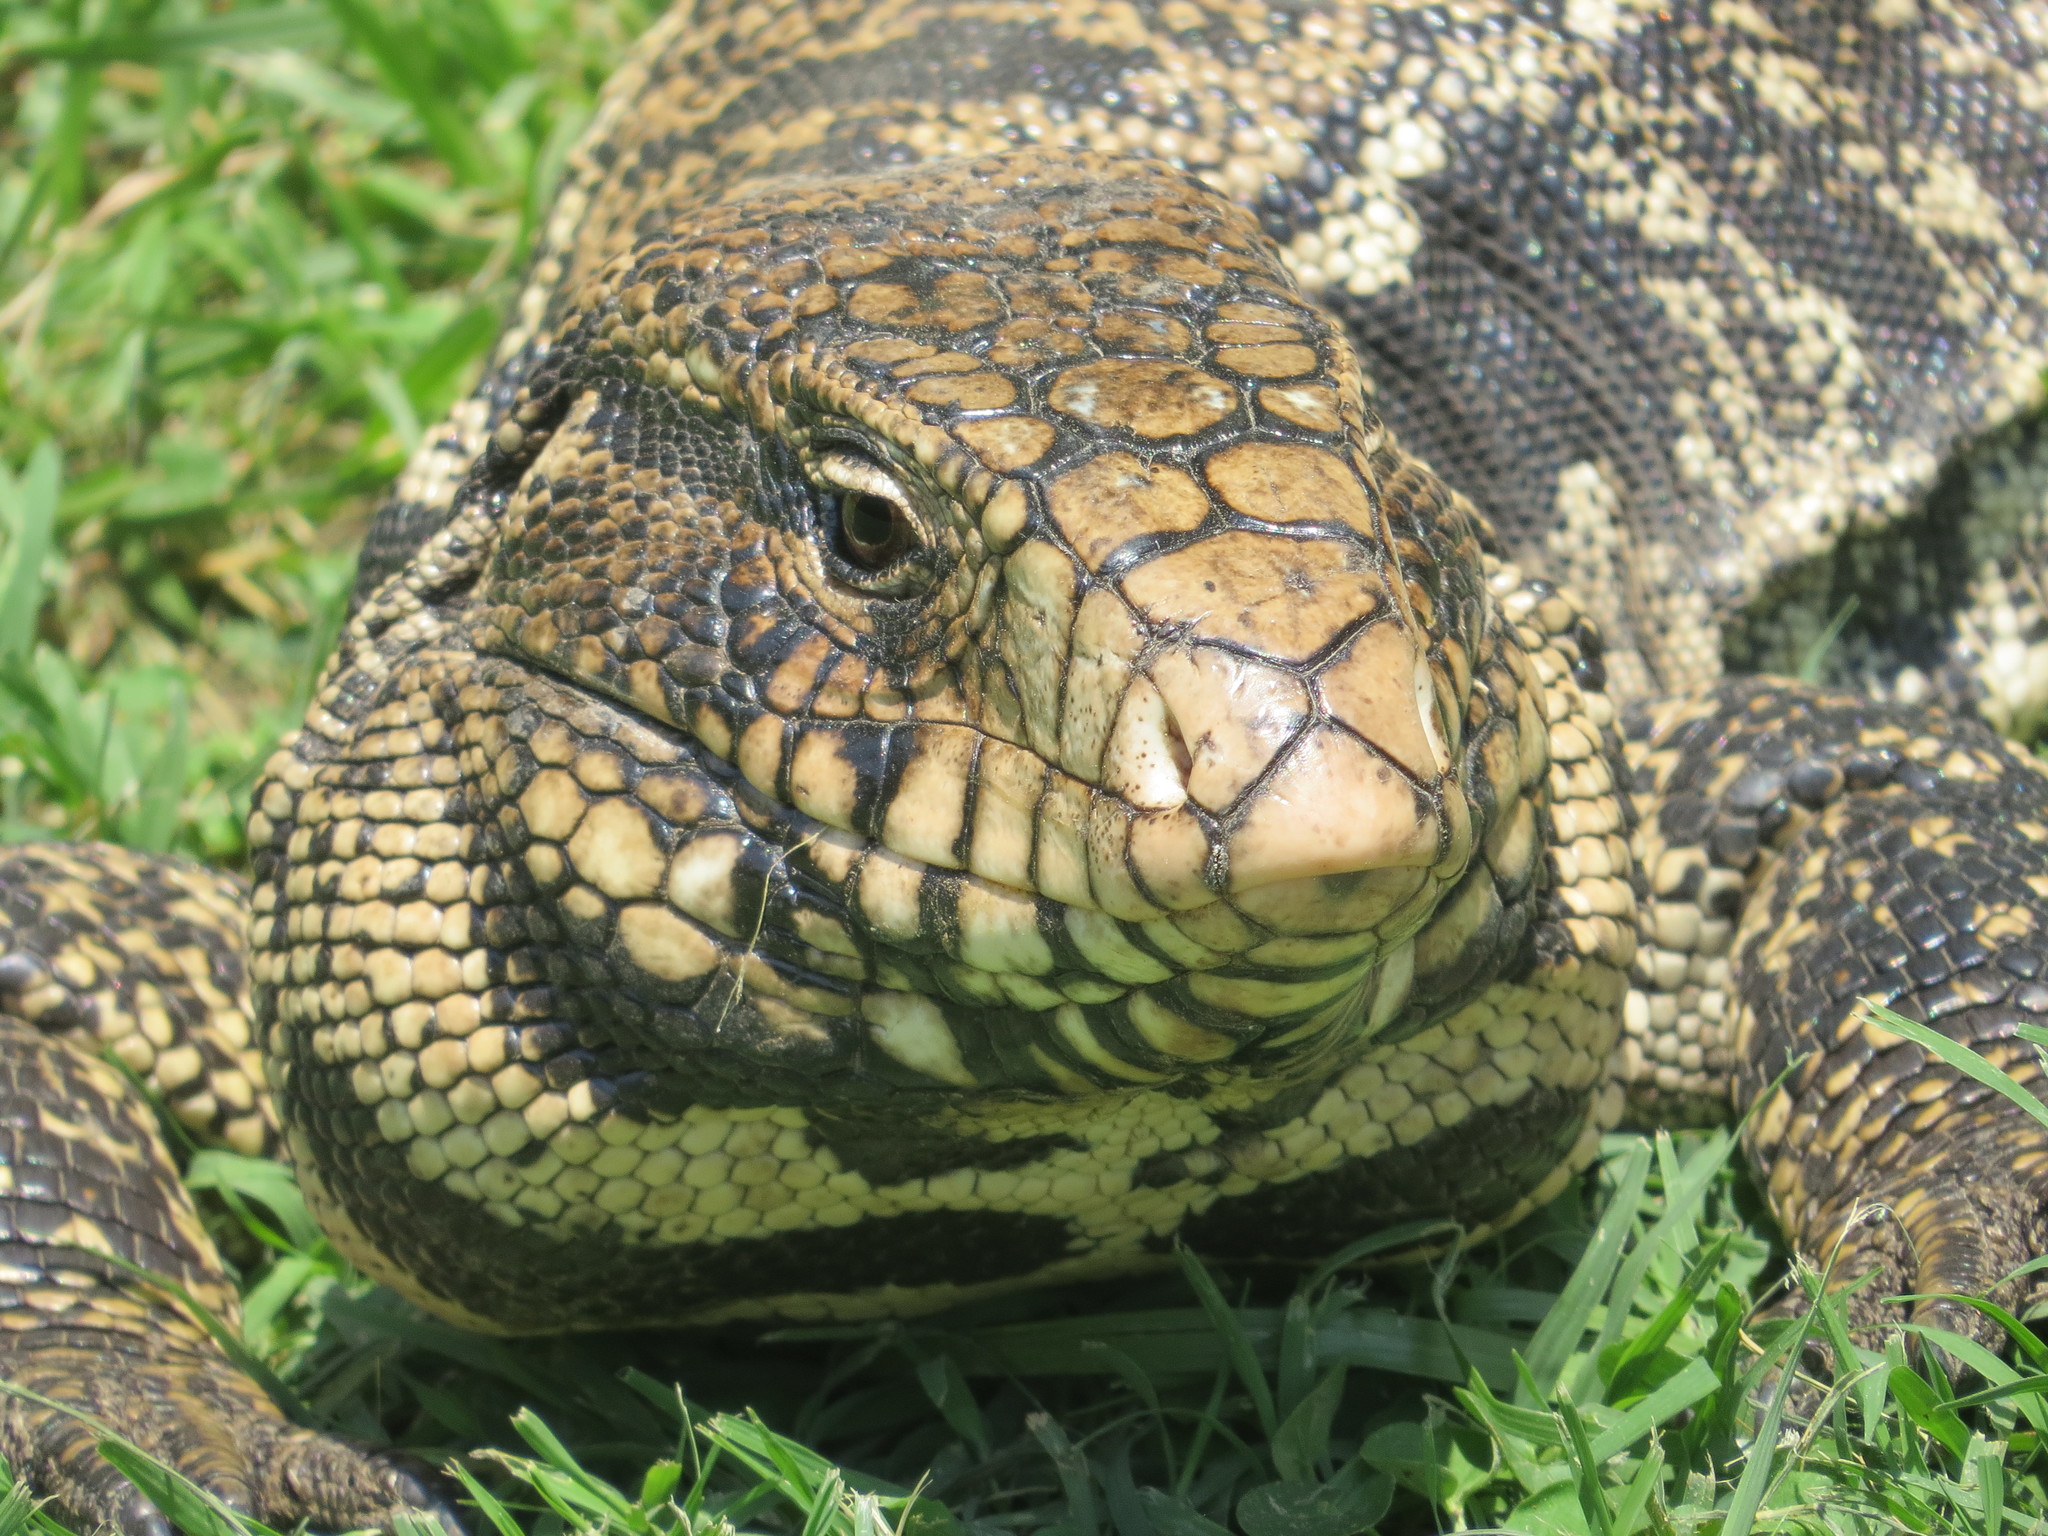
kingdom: Animalia
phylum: Chordata
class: Squamata
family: Teiidae
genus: Salvator
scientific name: Salvator merianae
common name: Argentine black and white tegu
